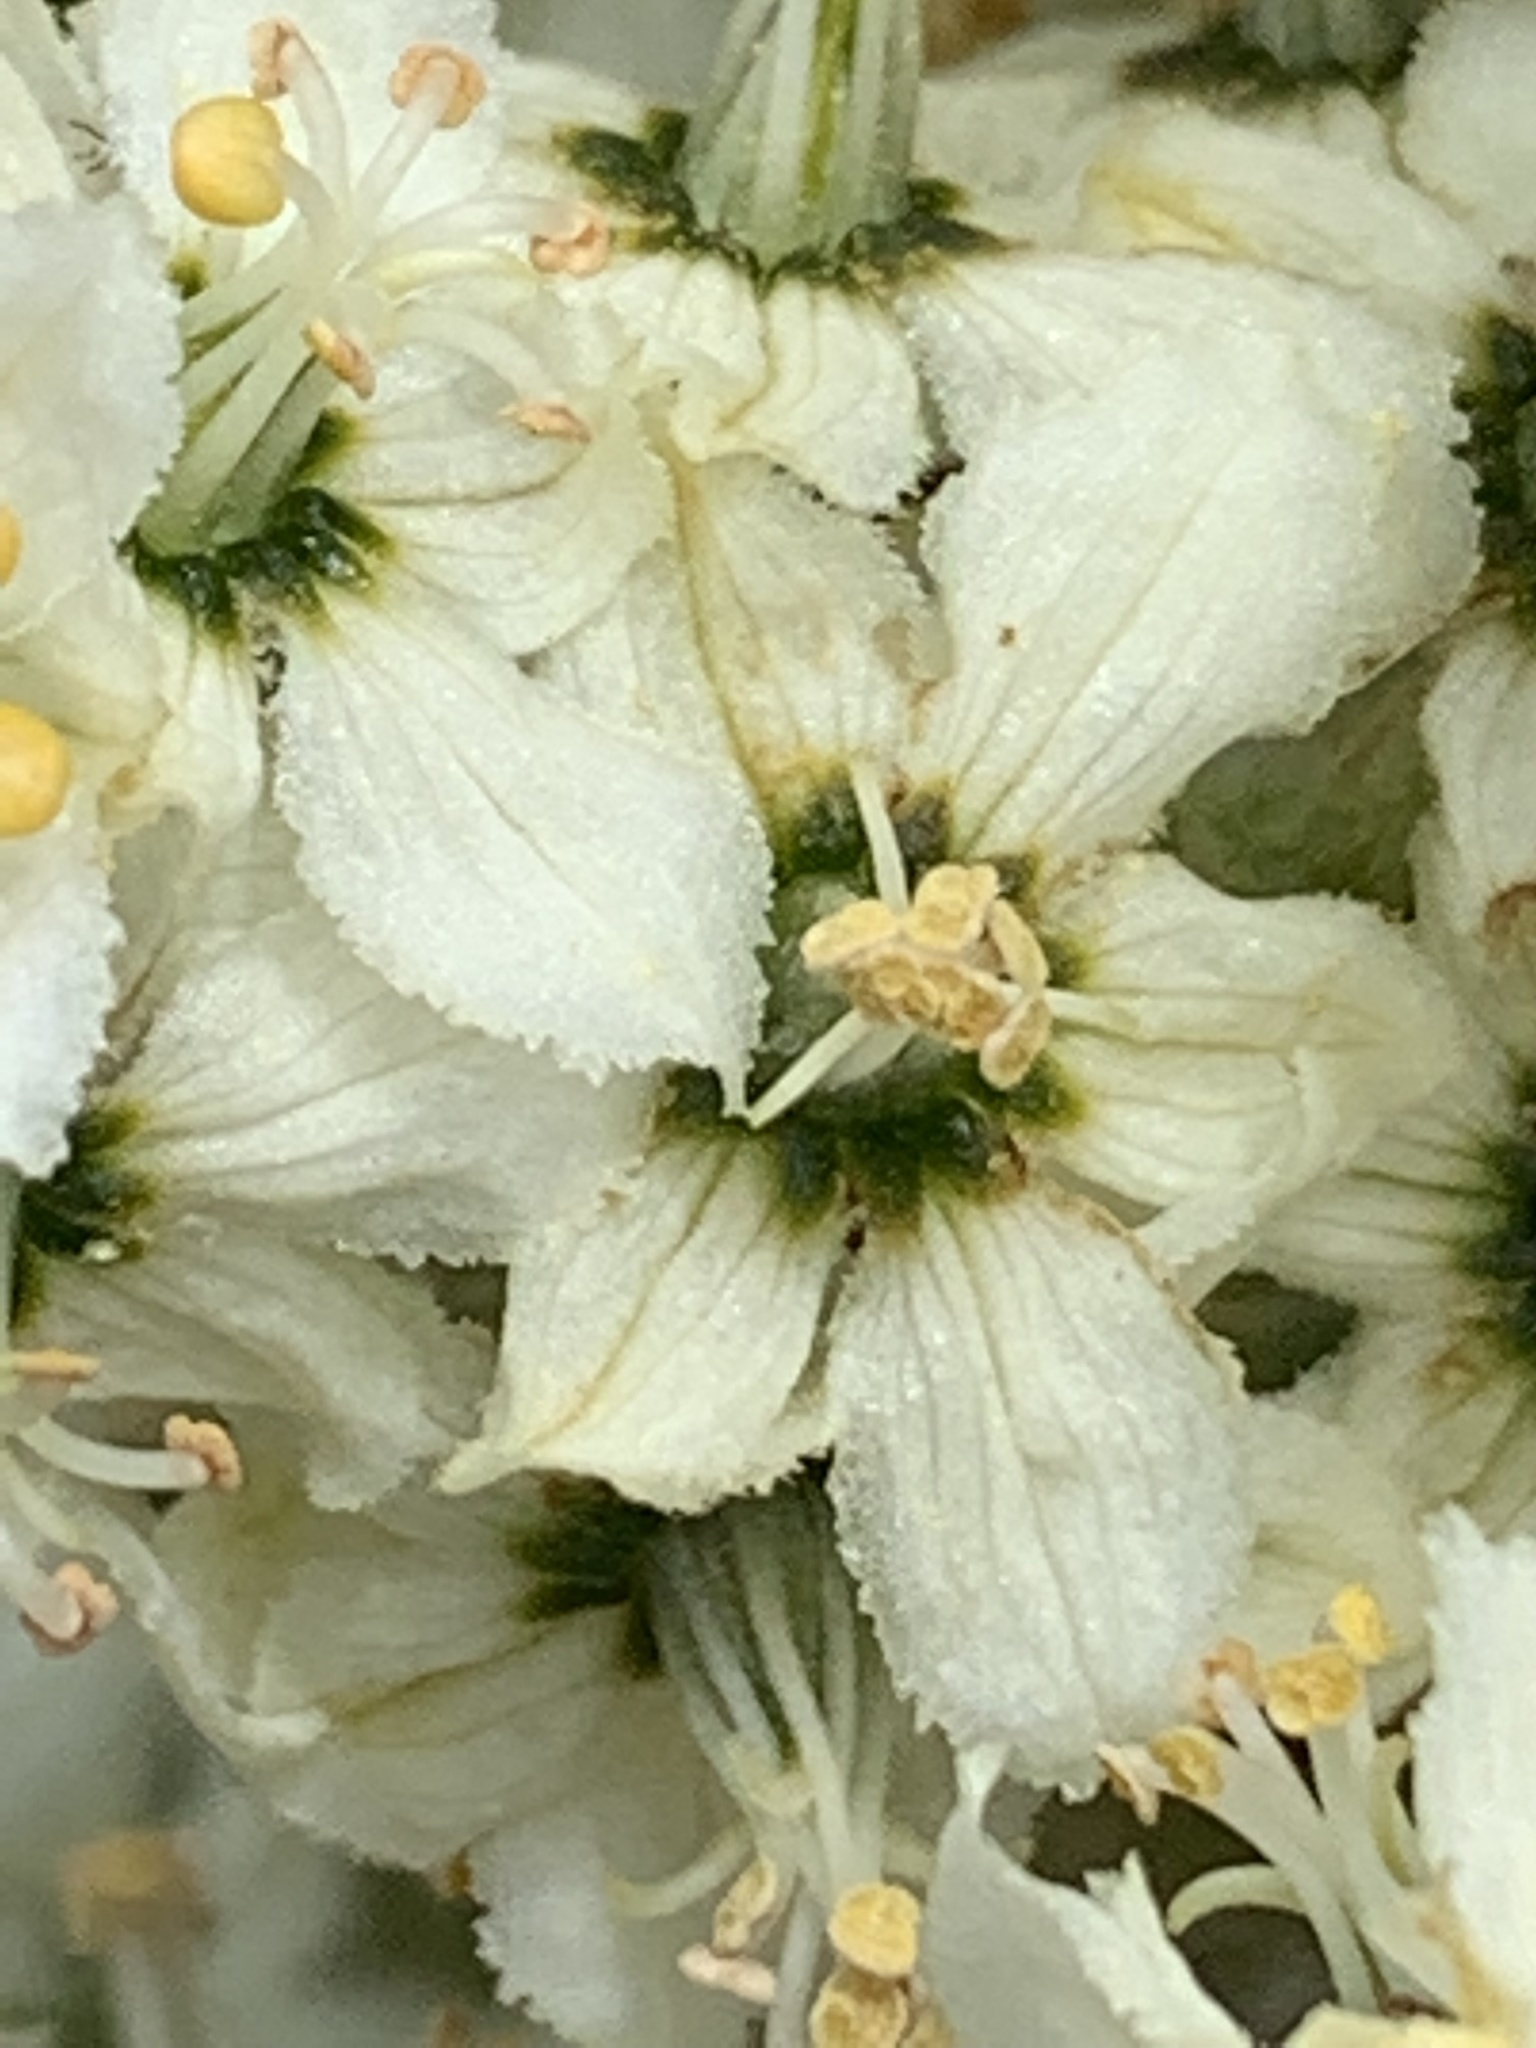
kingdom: Plantae
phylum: Tracheophyta
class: Liliopsida
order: Liliales
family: Melanthiaceae
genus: Veratrum
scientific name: Veratrum insolitum
